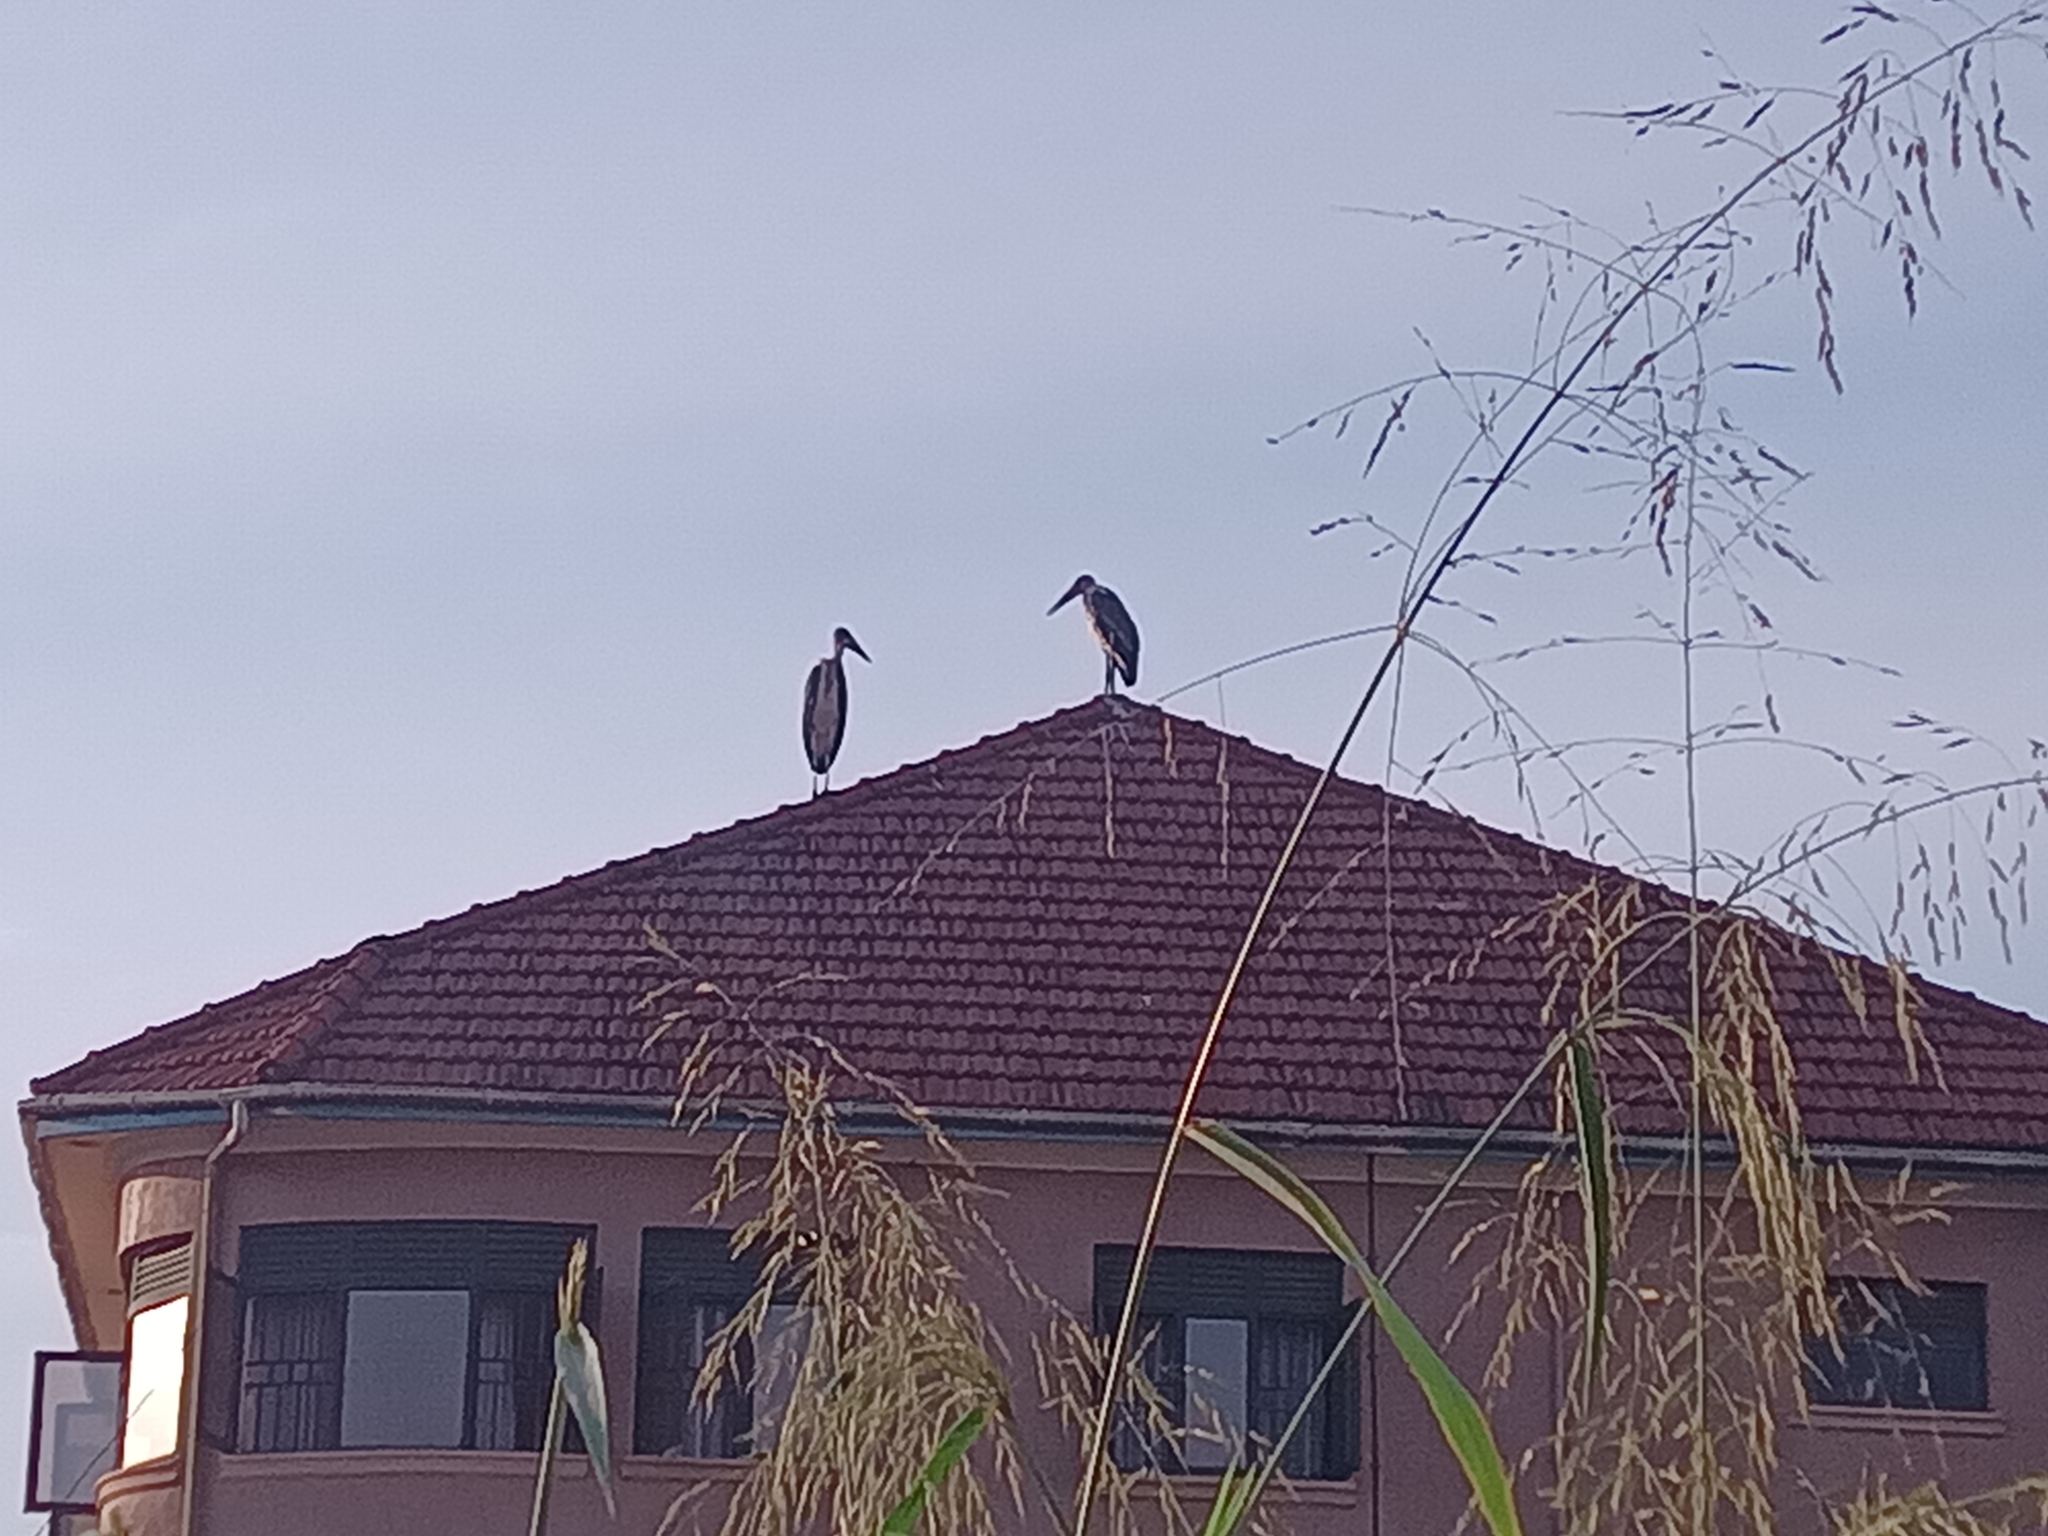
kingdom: Animalia
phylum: Chordata
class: Aves
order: Ciconiiformes
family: Ciconiidae
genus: Leptoptilos
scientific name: Leptoptilos crumenifer
